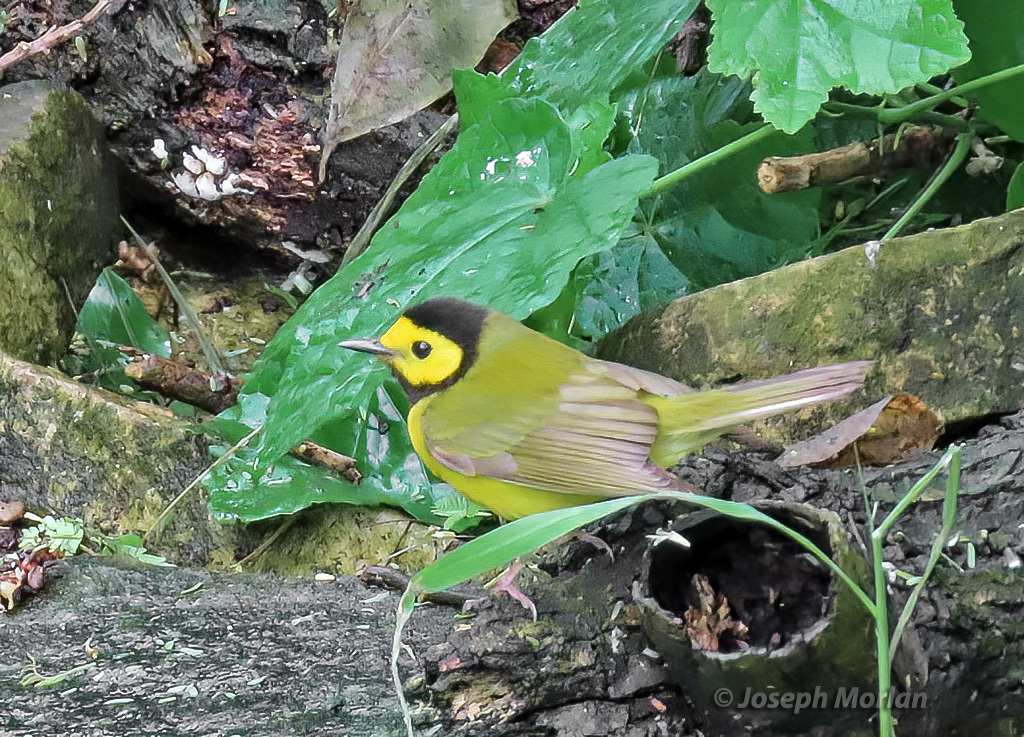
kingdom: Animalia
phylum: Chordata
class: Aves
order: Passeriformes
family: Parulidae
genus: Setophaga
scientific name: Setophaga citrina
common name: Hooded warbler
